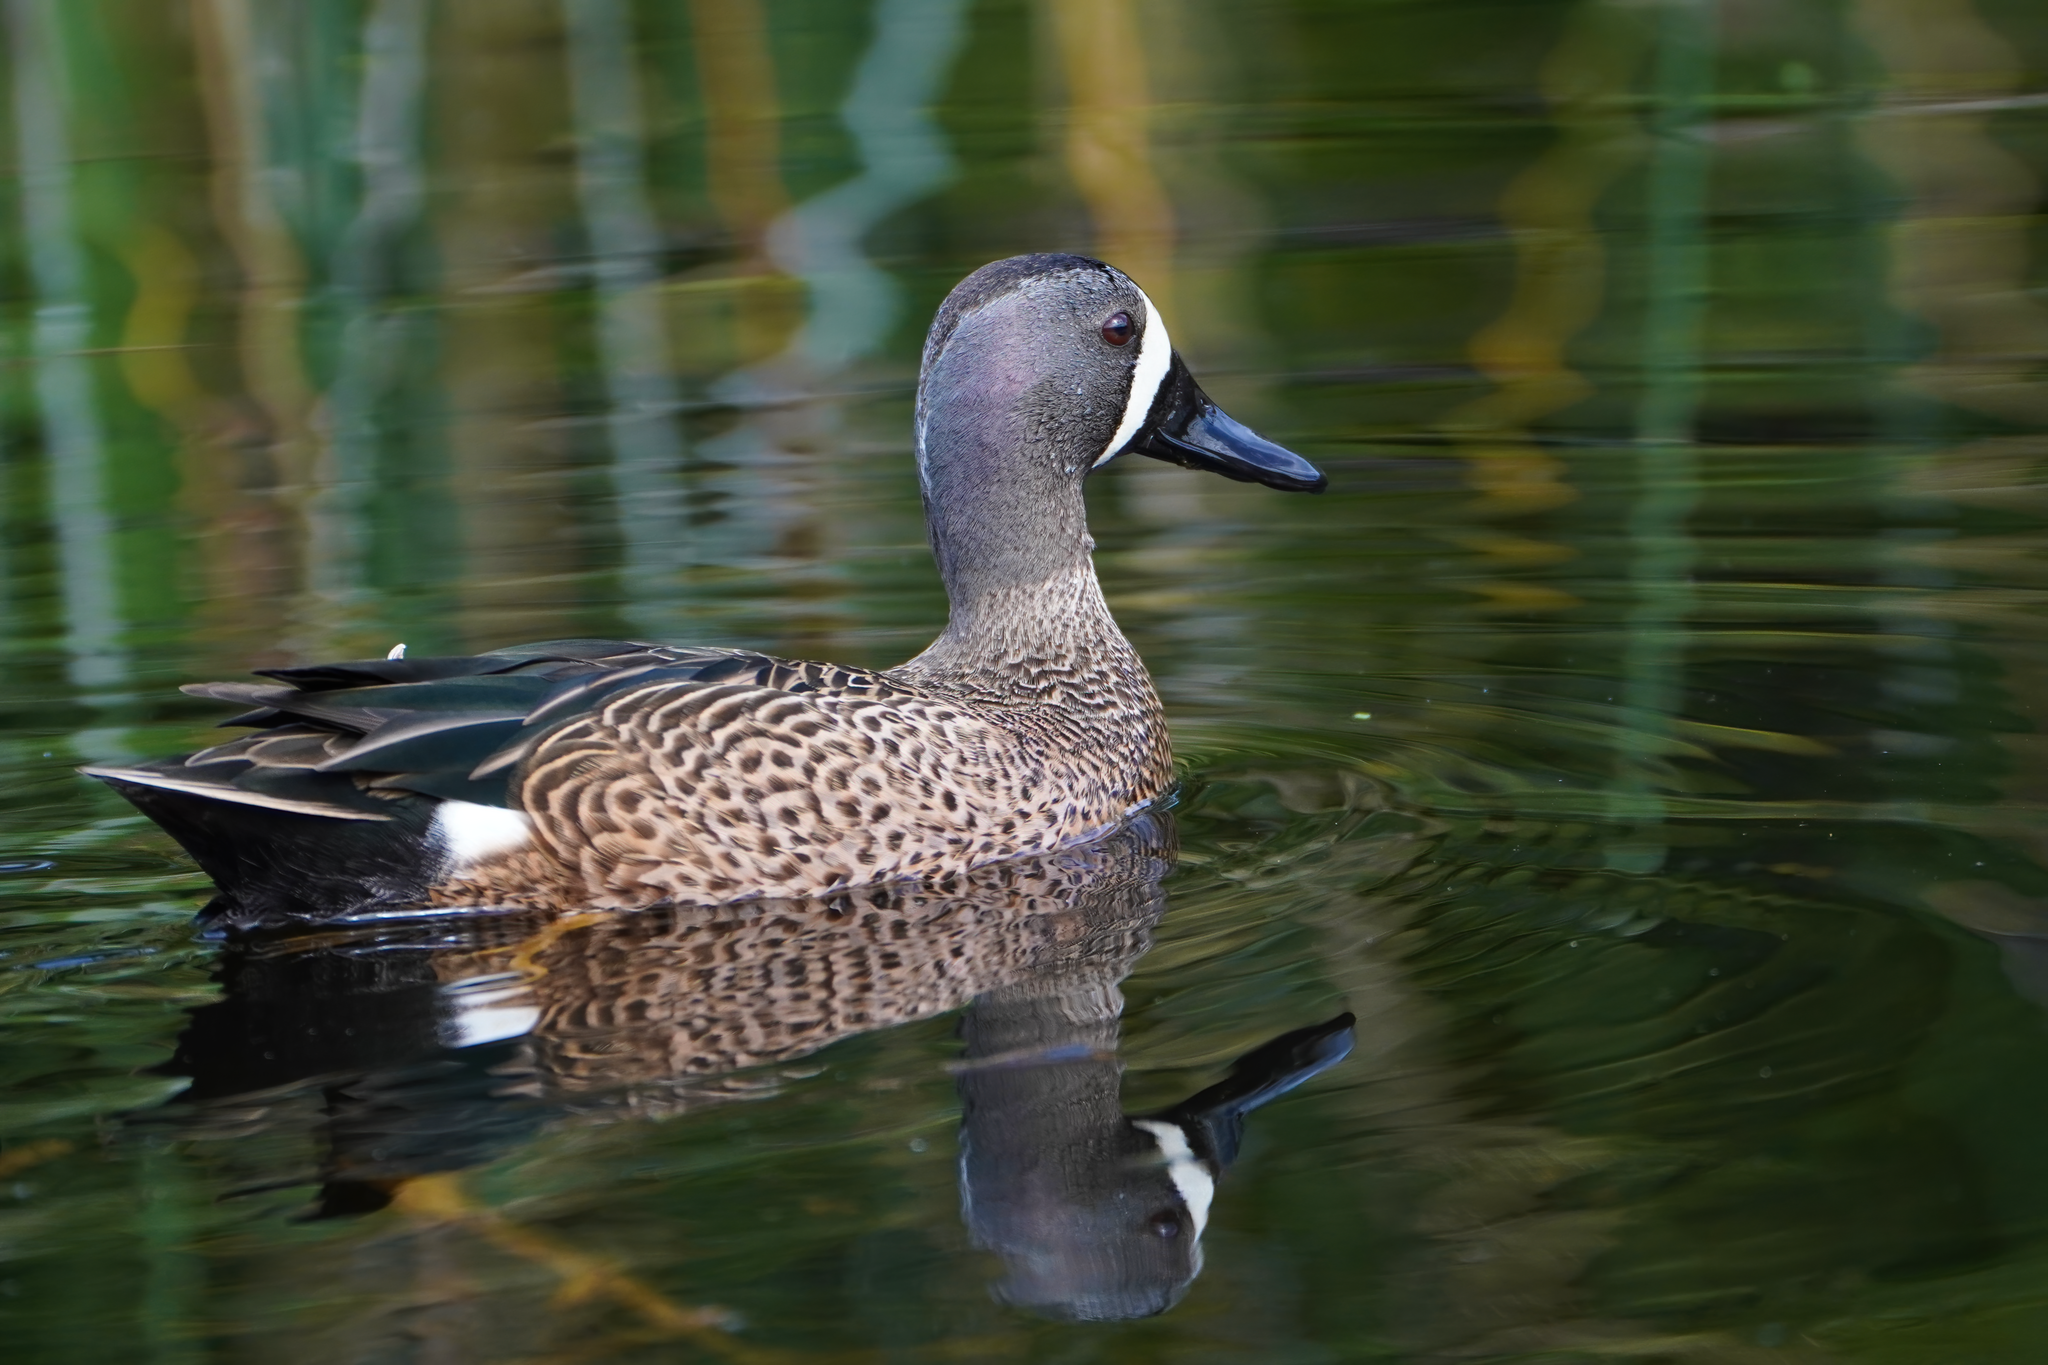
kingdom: Animalia
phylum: Chordata
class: Aves
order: Anseriformes
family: Anatidae
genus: Spatula
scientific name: Spatula discors
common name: Blue-winged teal
